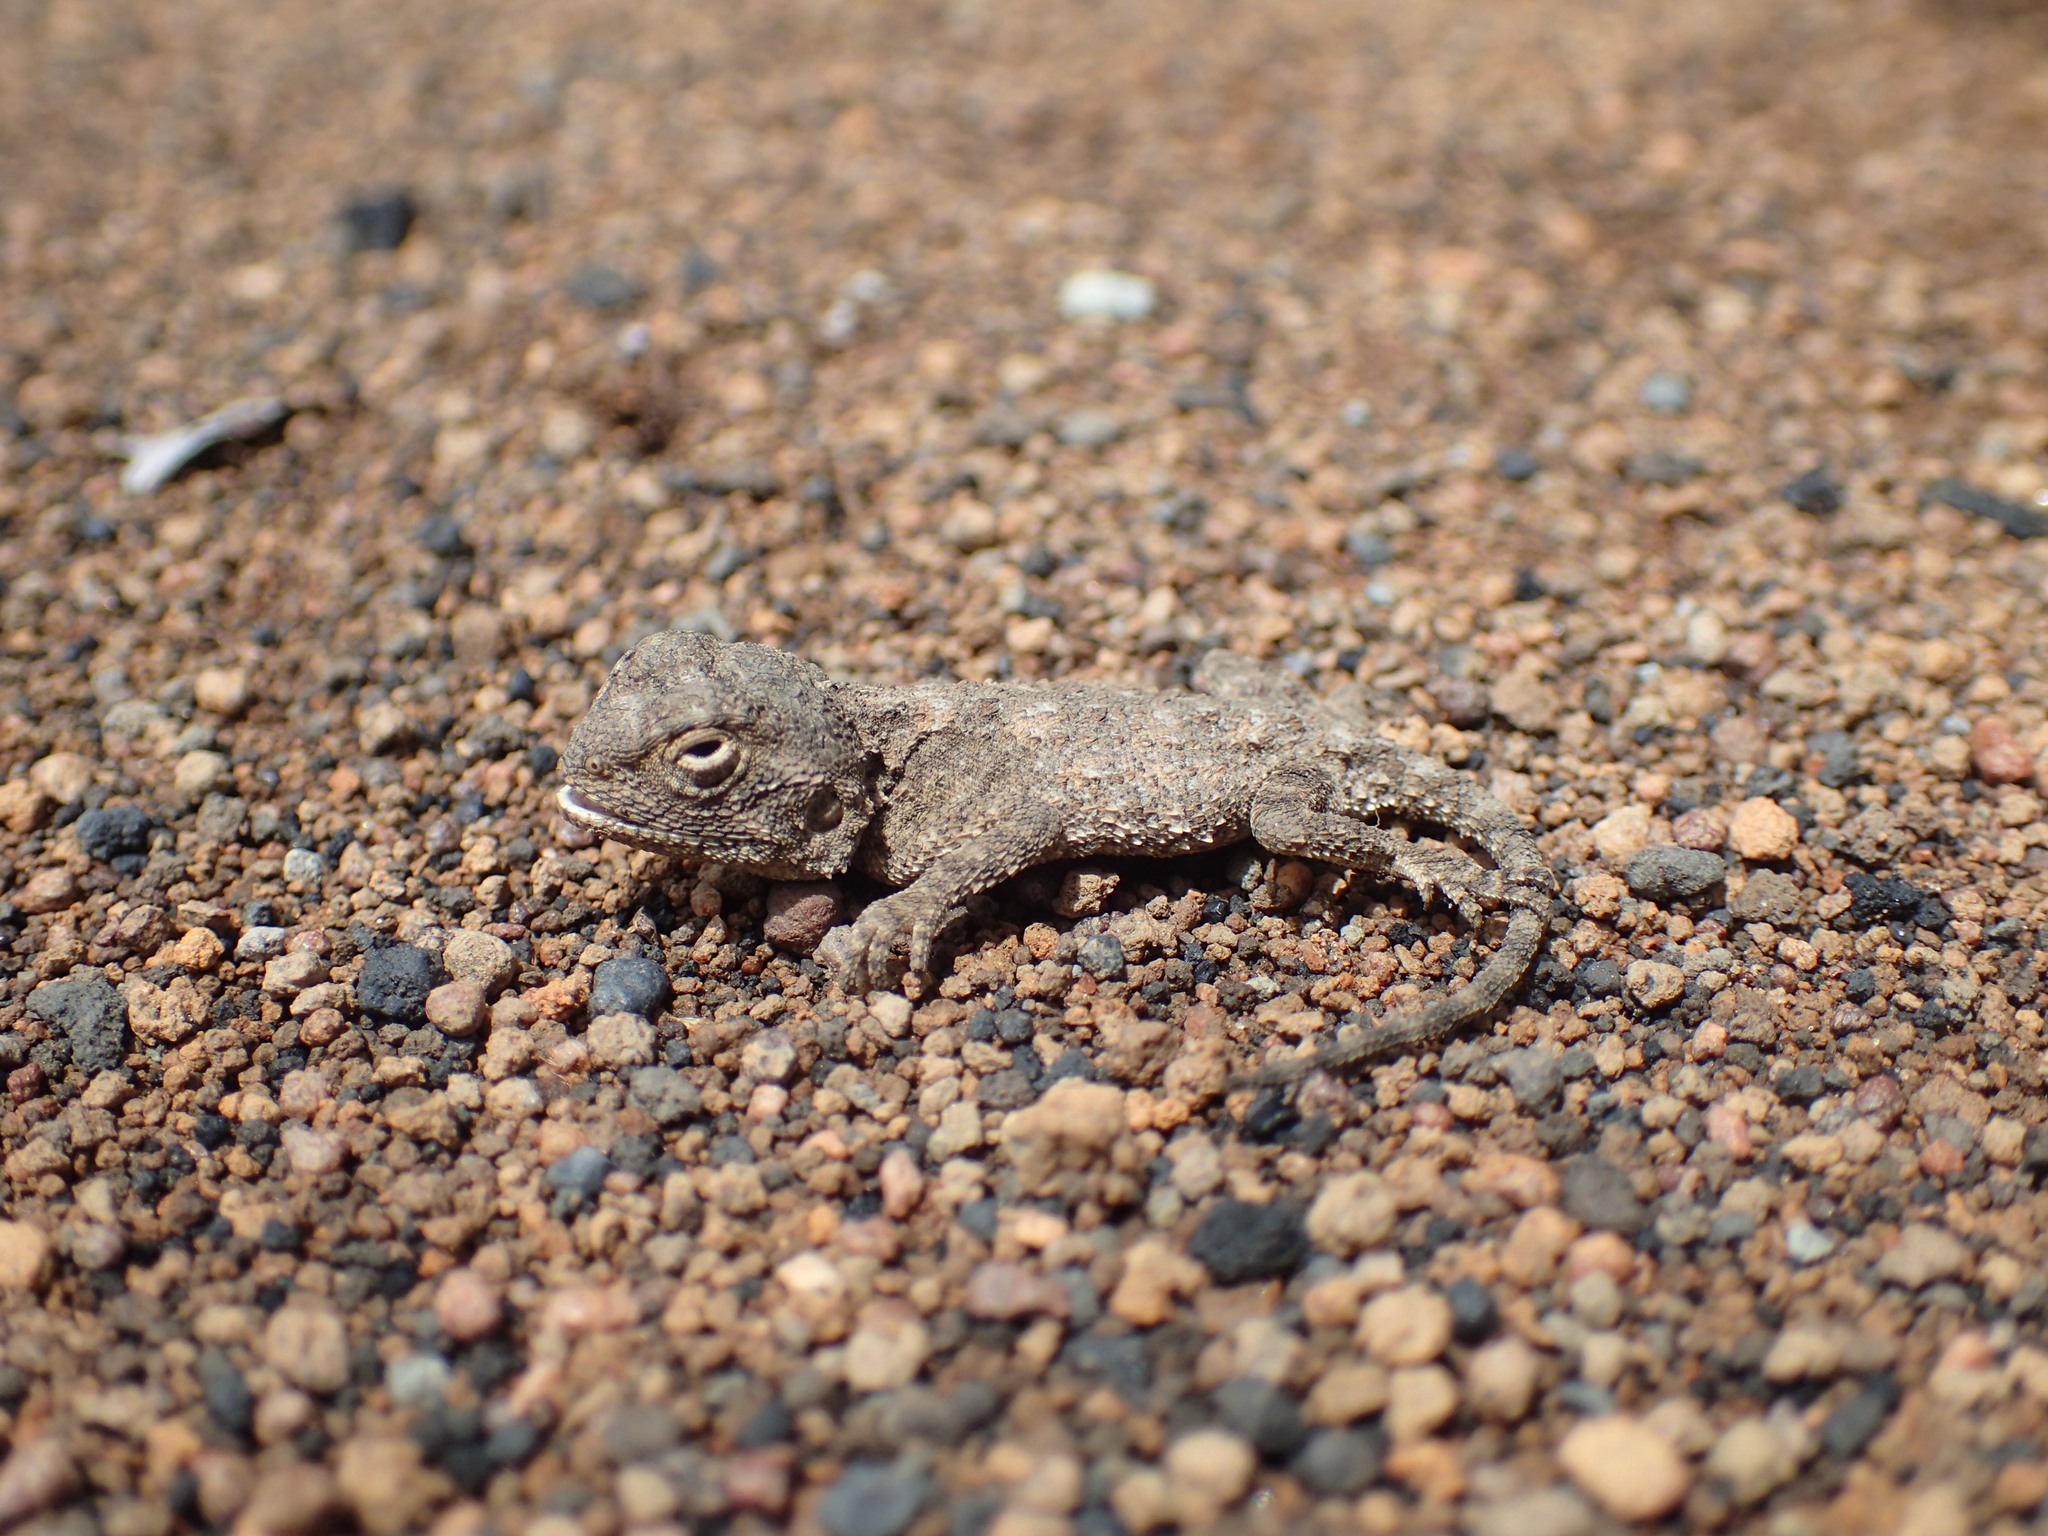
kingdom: Animalia
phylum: Chordata
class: Squamata
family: Agamidae
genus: Agama
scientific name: Agama armata
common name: Northern ground agama
